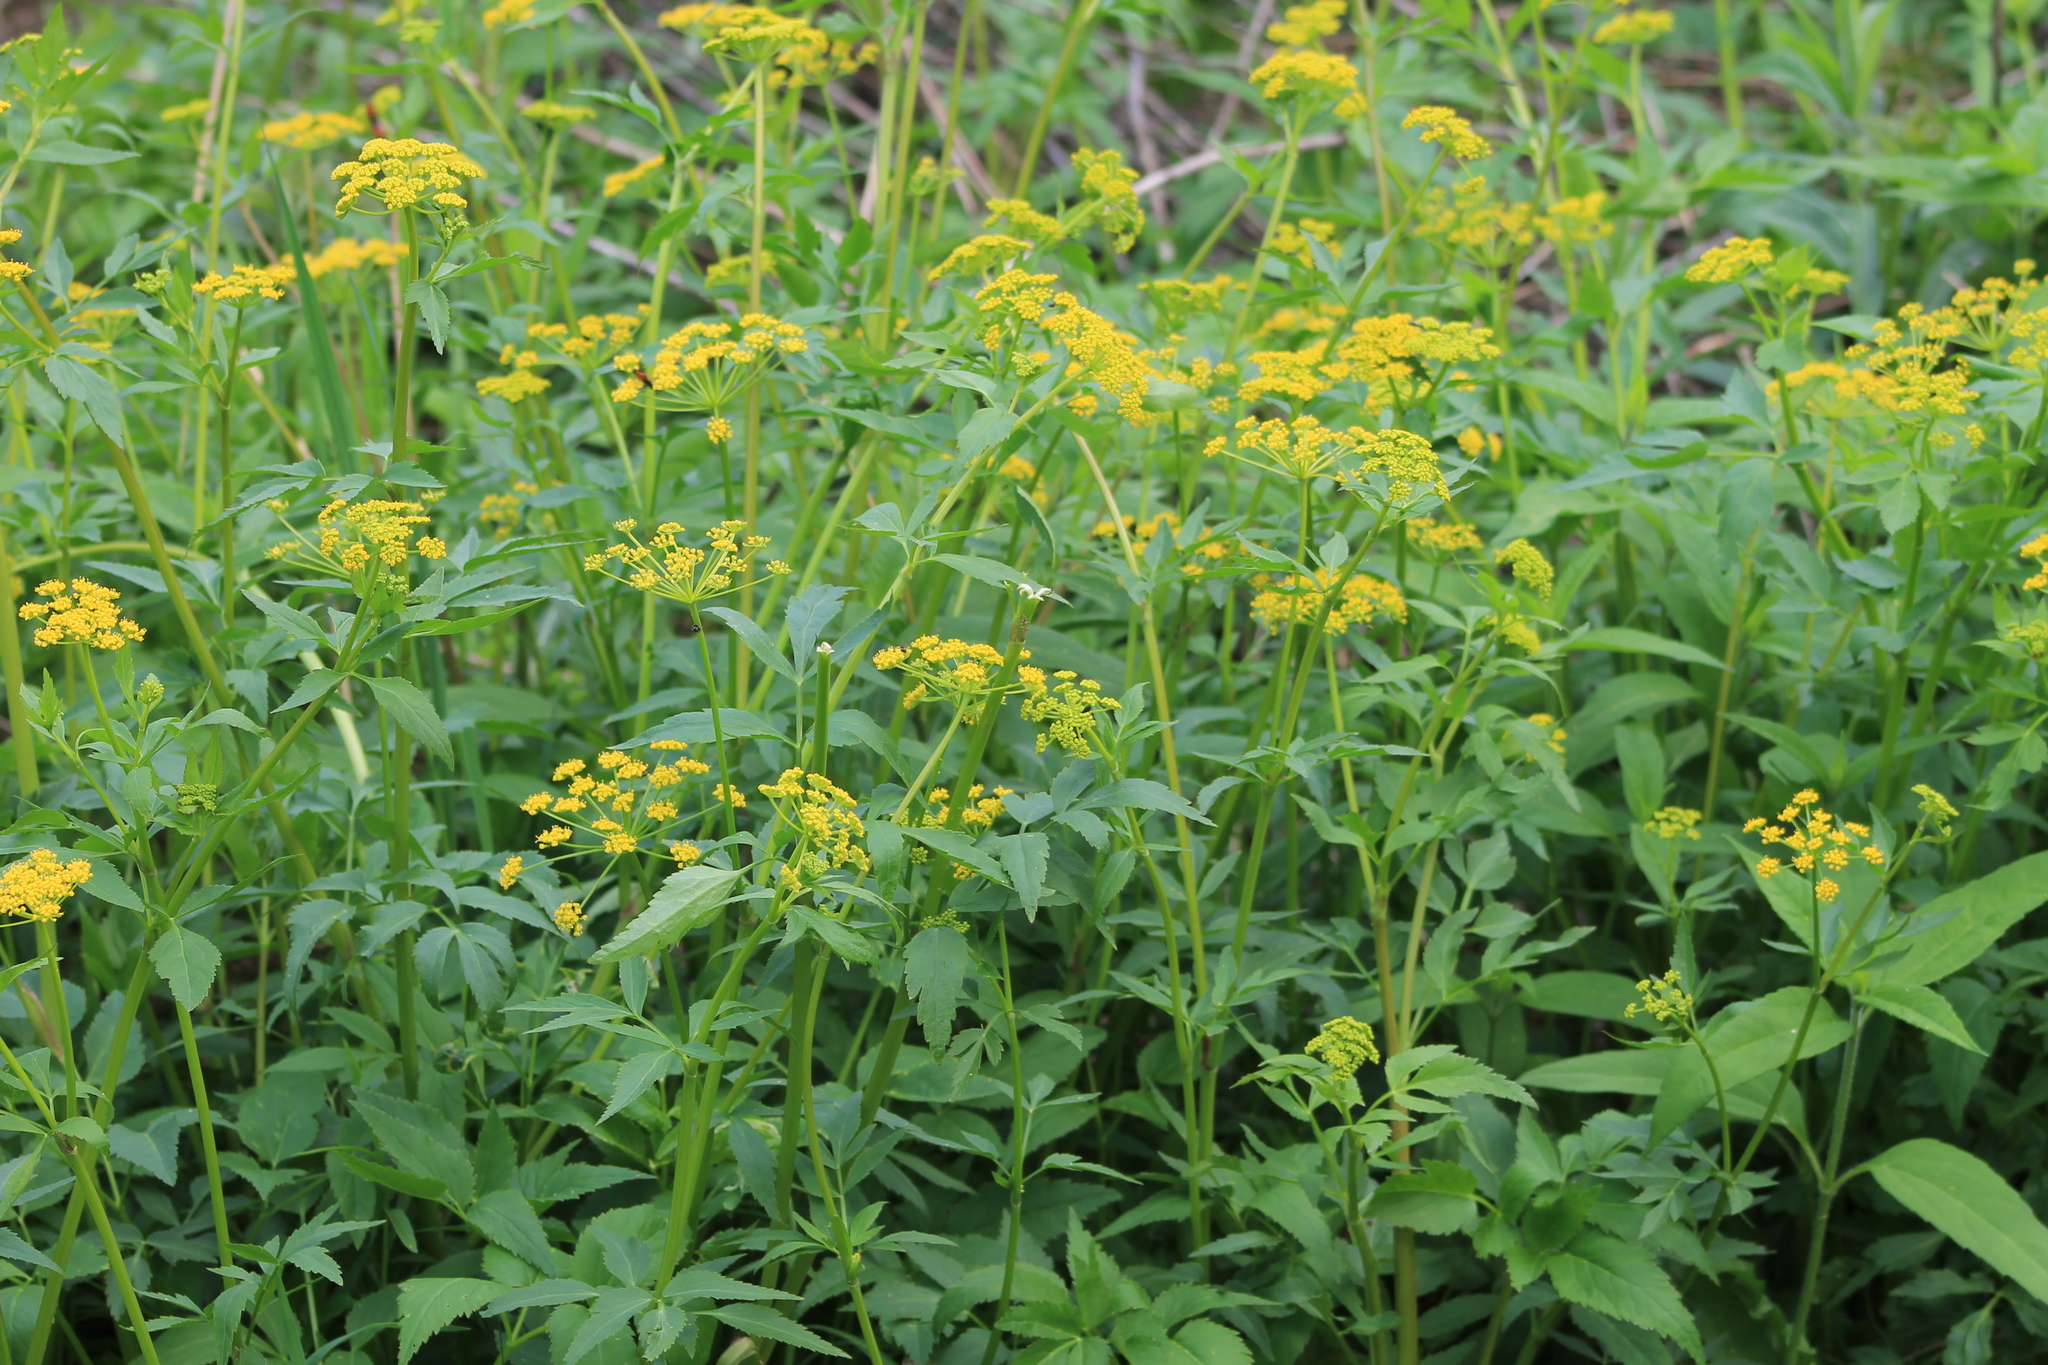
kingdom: Plantae
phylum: Tracheophyta
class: Magnoliopsida
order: Apiales
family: Apiaceae
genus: Zizia
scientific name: Zizia aurea
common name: Golden alexanders
